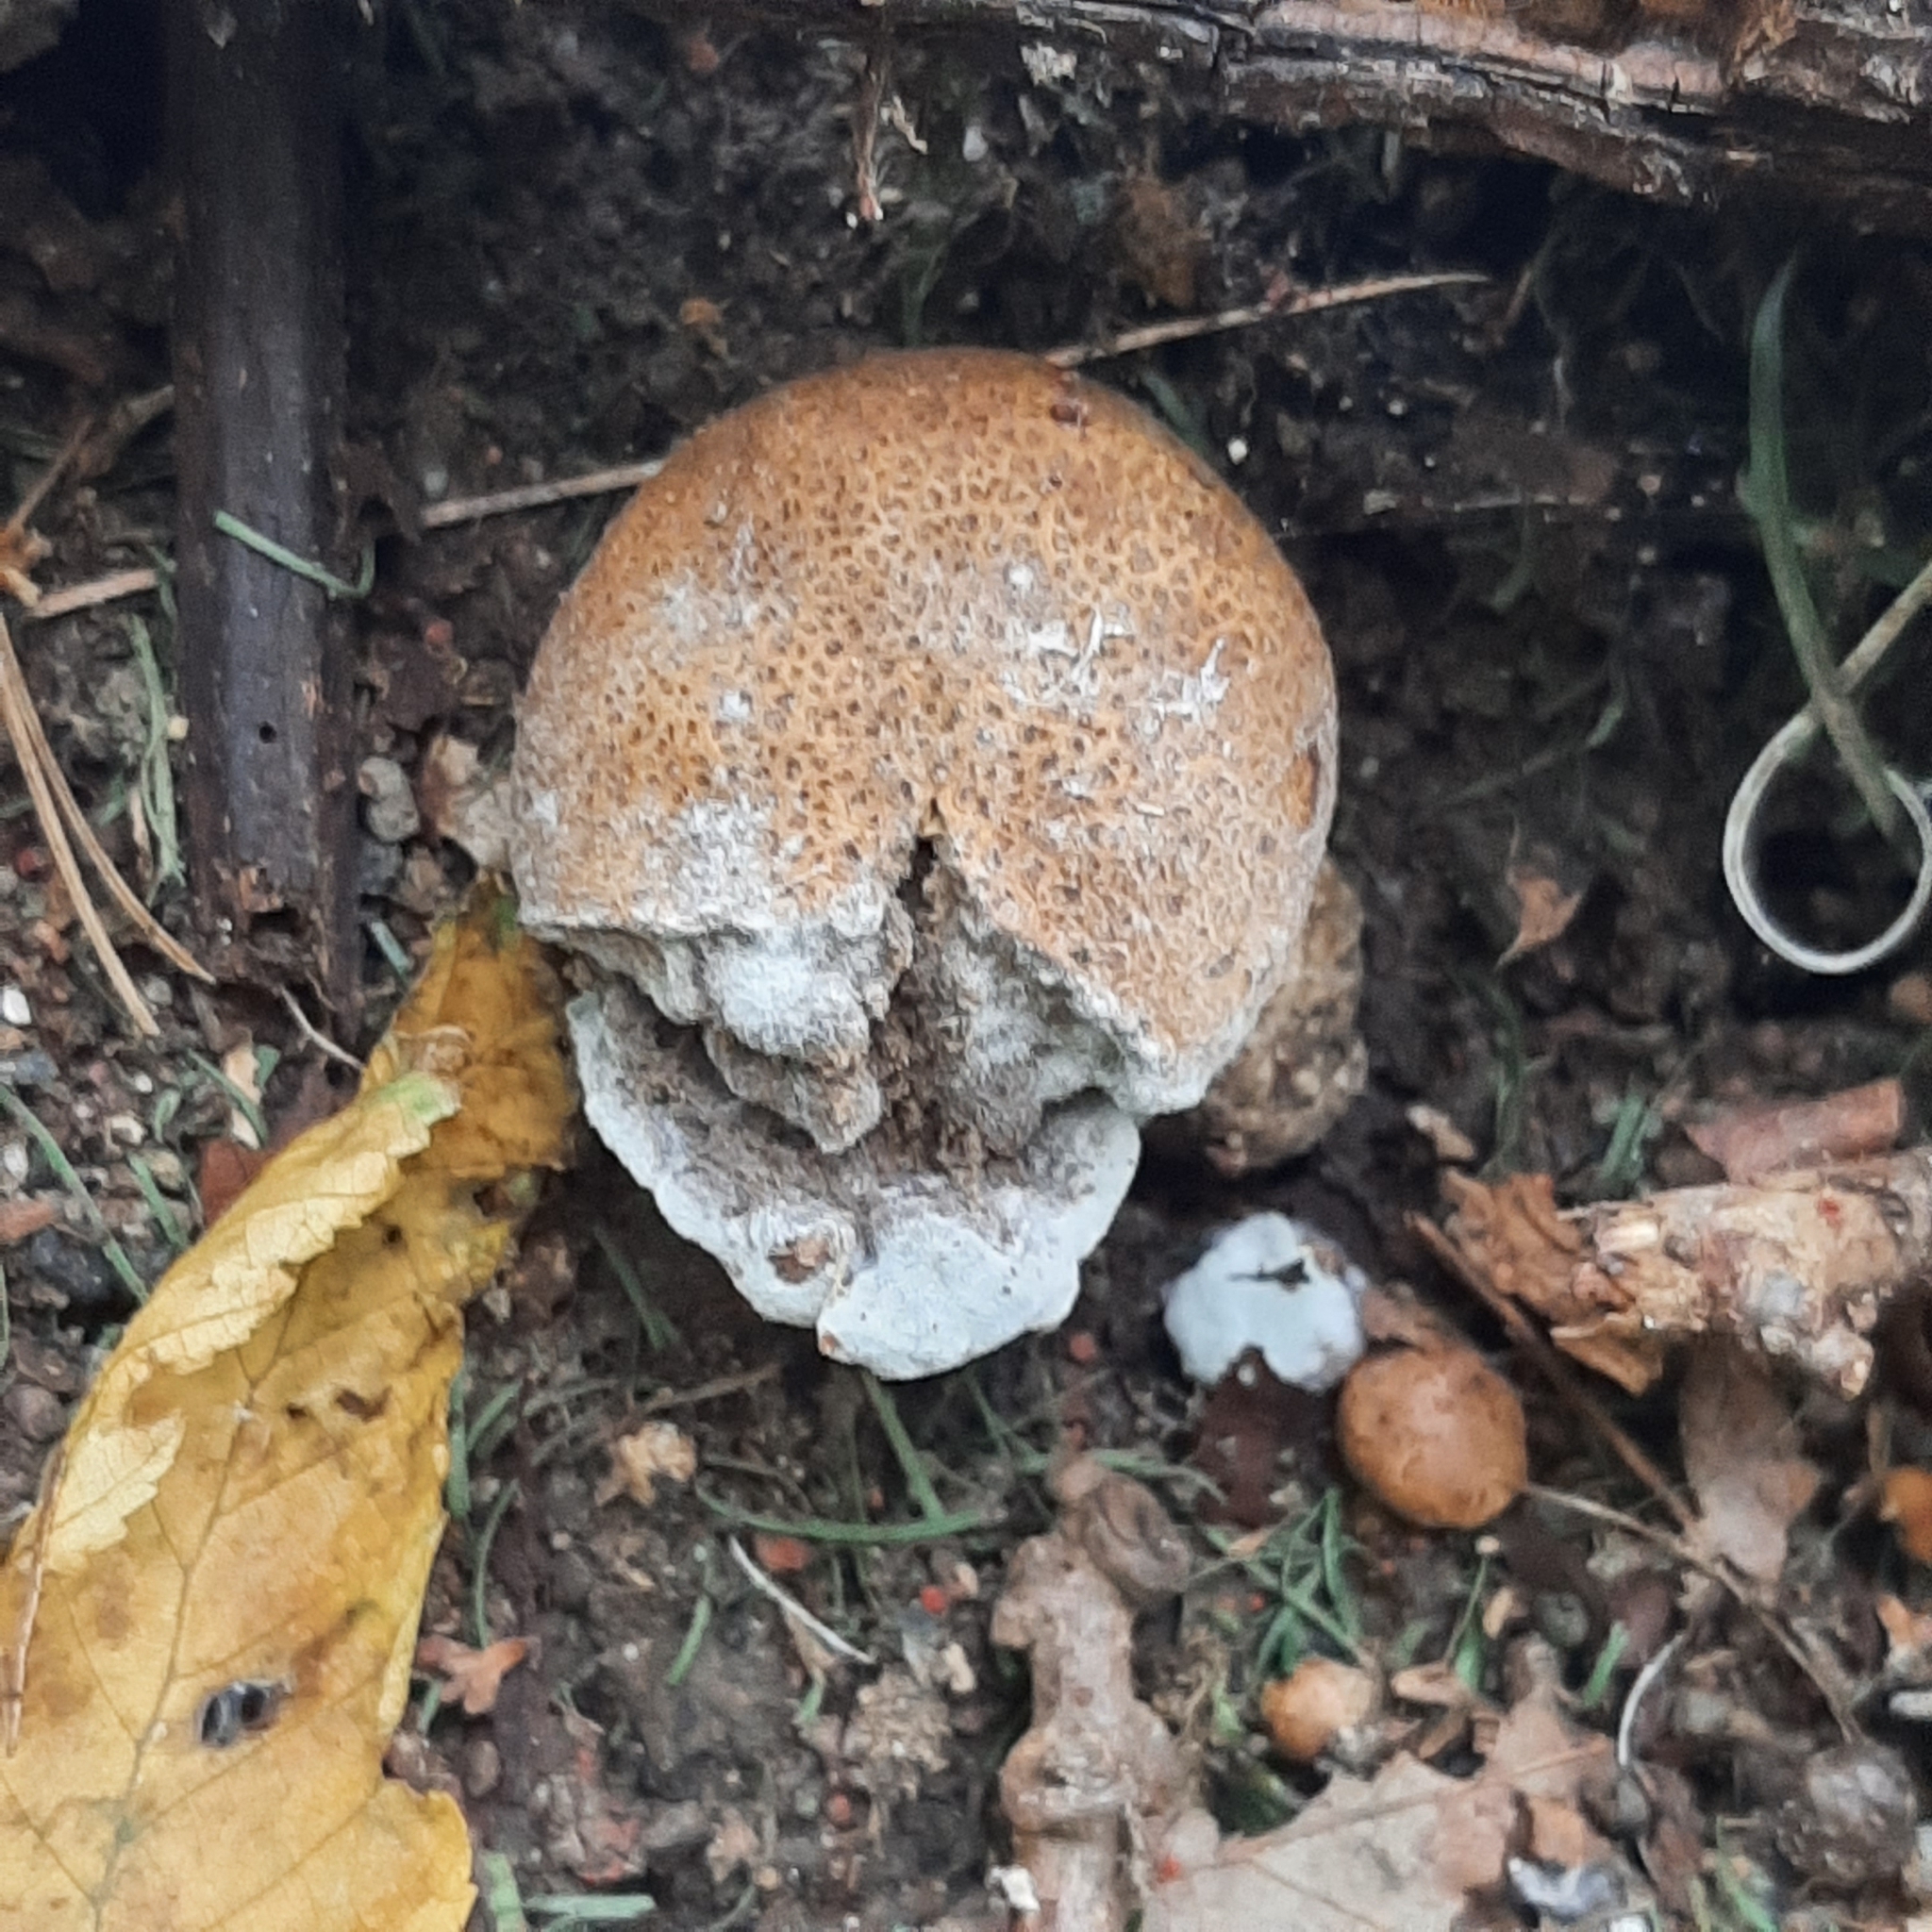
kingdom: Fungi
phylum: Basidiomycota
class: Agaricomycetes
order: Boletales
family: Sclerodermataceae
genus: Scleroderma
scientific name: Scleroderma
